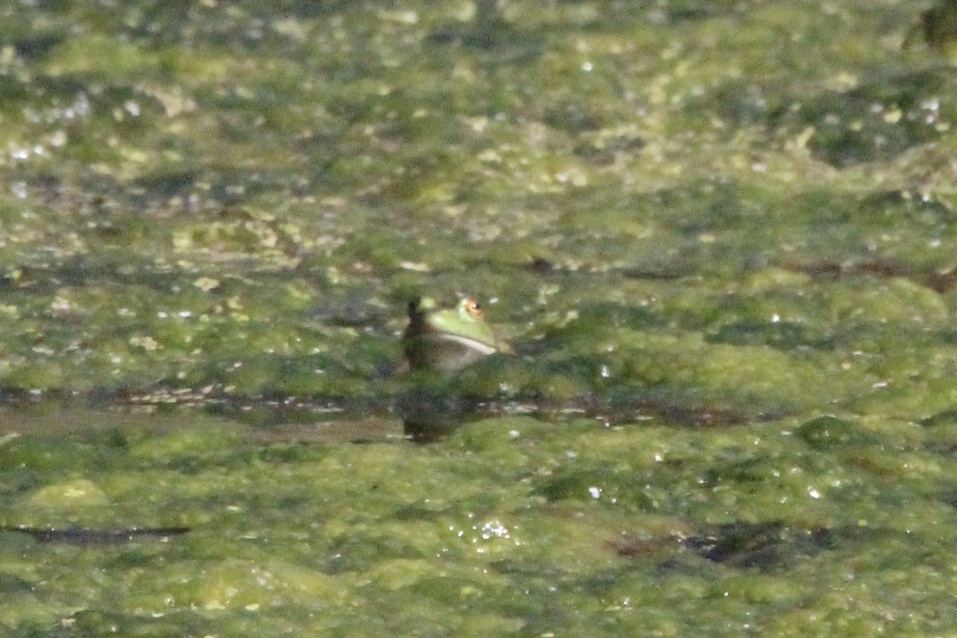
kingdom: Animalia
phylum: Chordata
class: Amphibia
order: Anura
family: Ranidae
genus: Lithobates
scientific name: Lithobates catesbeianus
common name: American bullfrog
